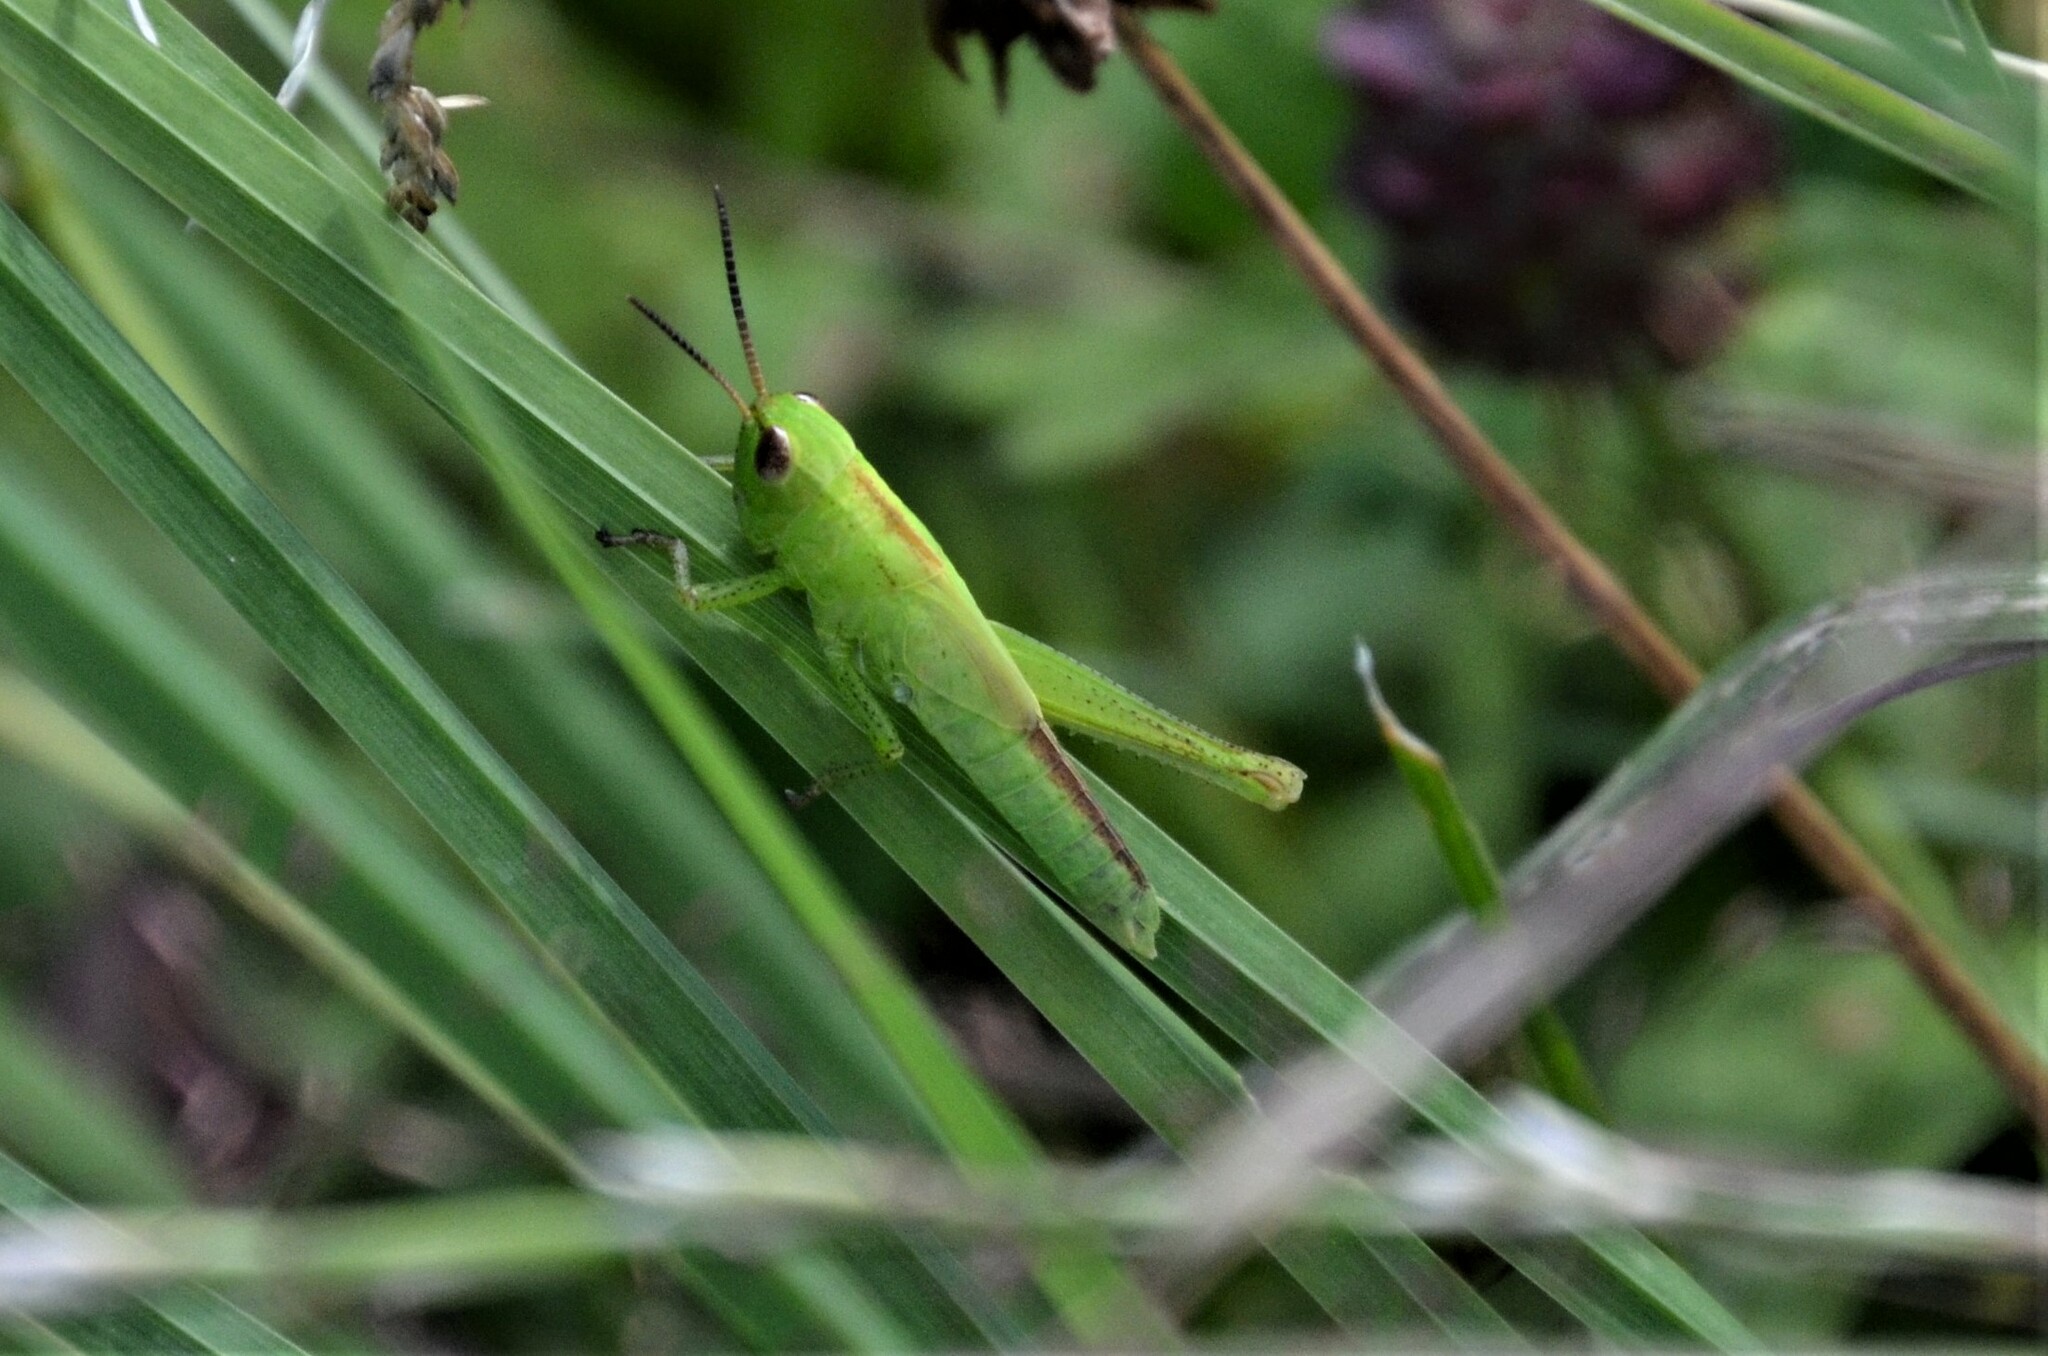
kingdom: Animalia
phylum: Arthropoda
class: Insecta
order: Orthoptera
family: Acrididae
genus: Mecostethus
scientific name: Mecostethus parapleurus
